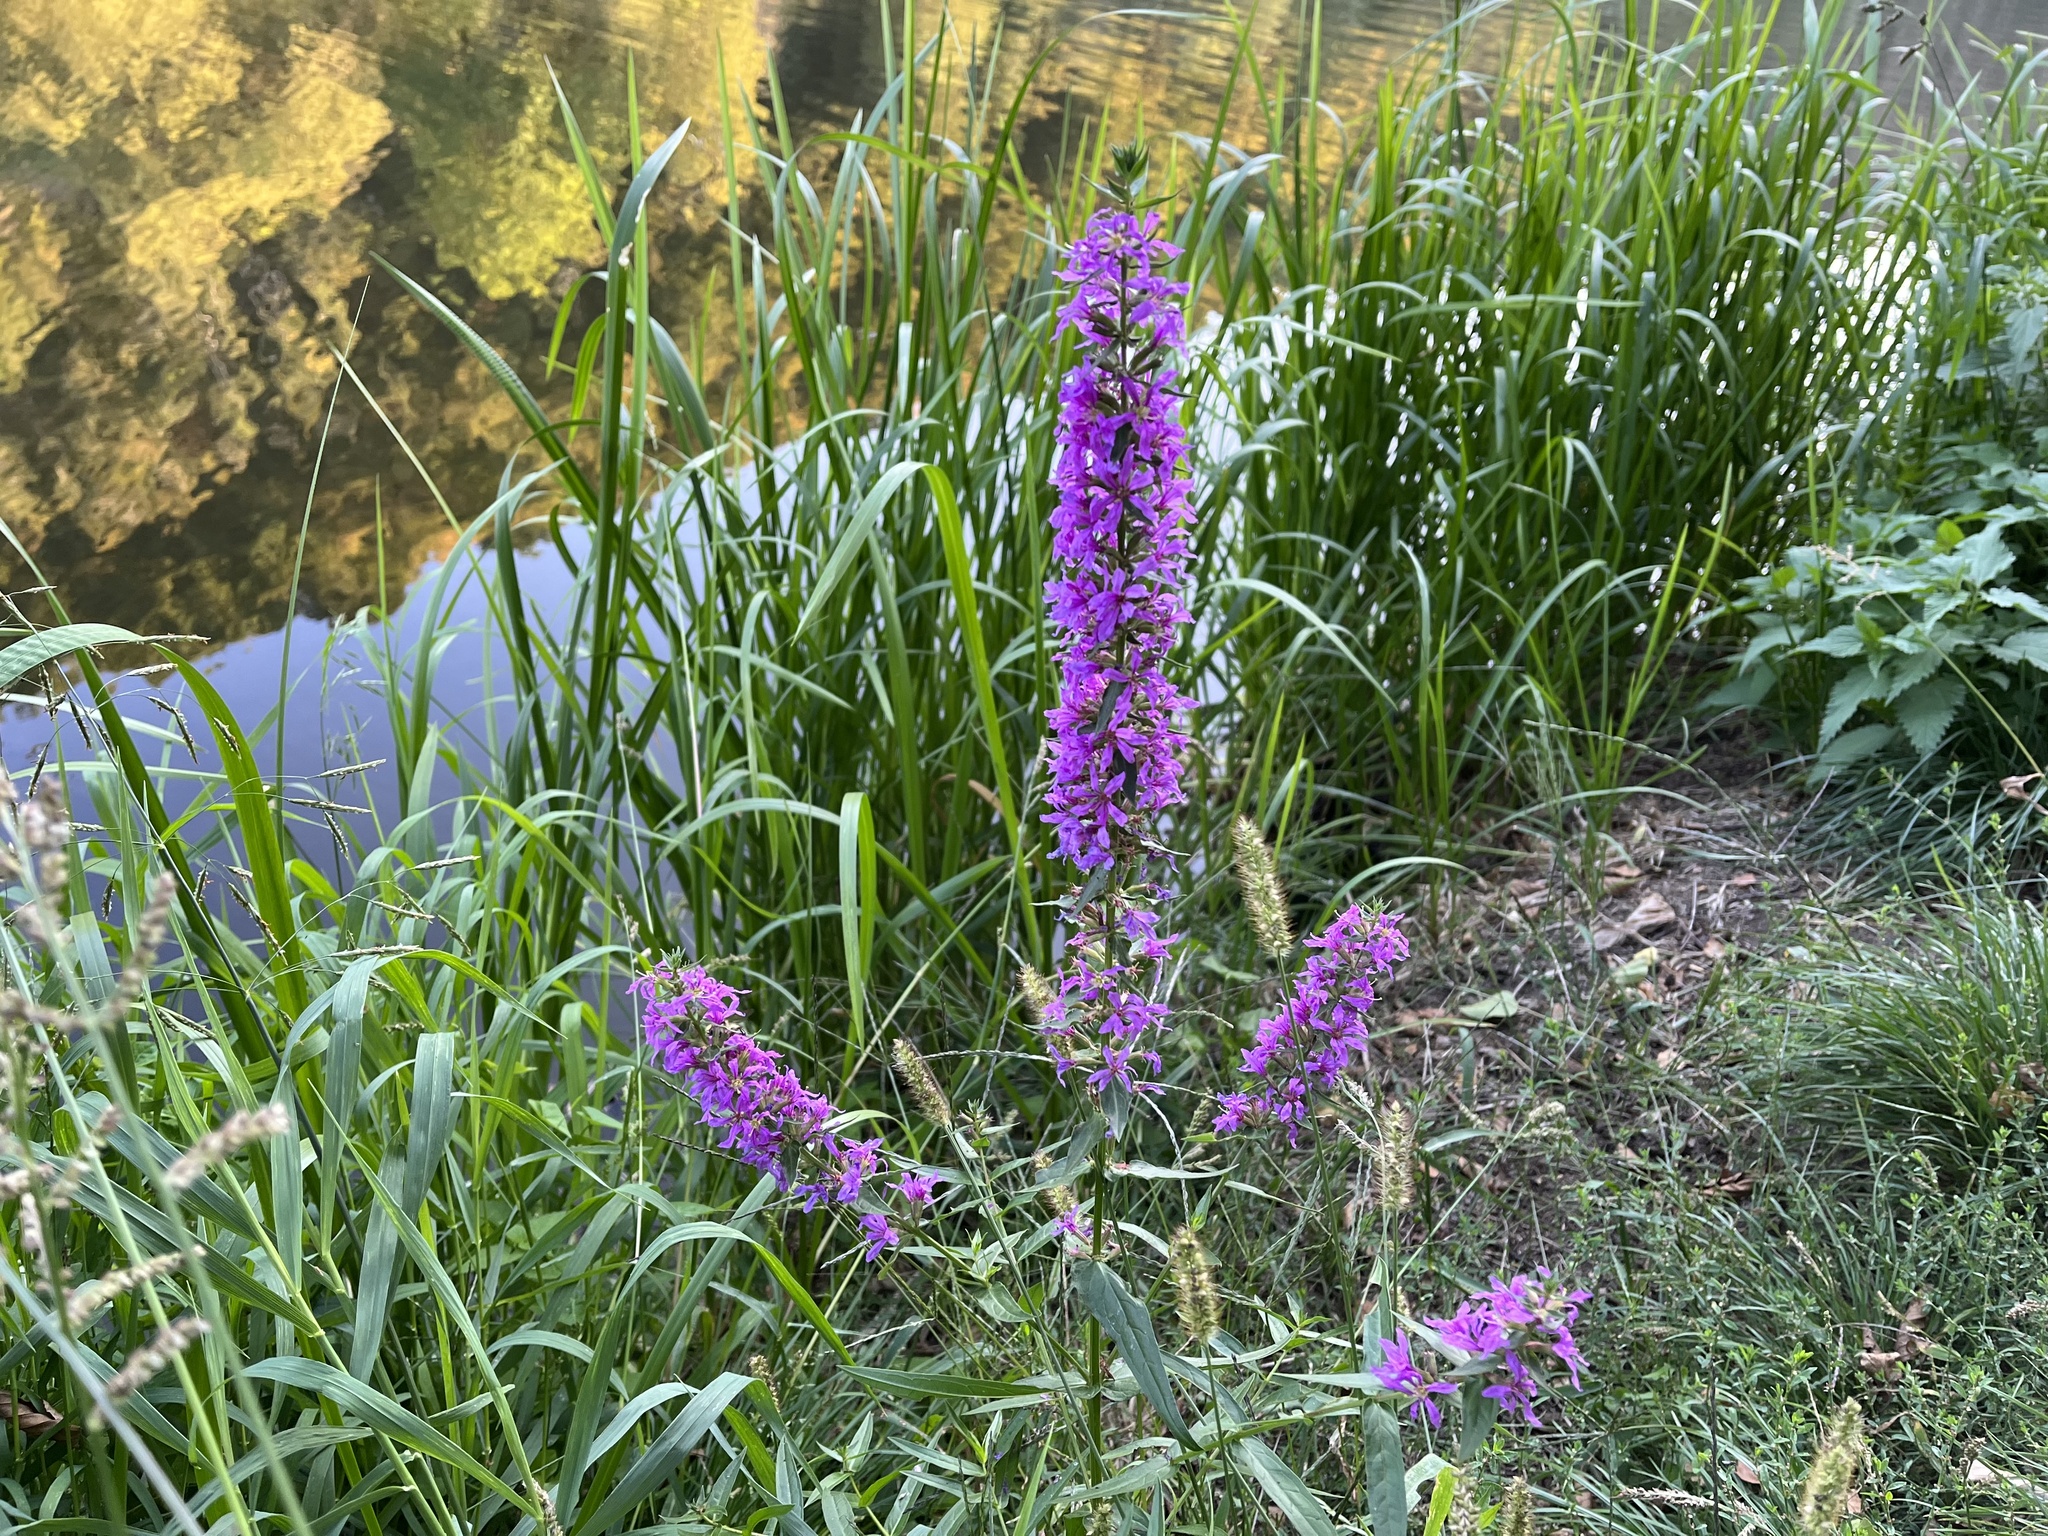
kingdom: Plantae
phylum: Tracheophyta
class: Magnoliopsida
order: Myrtales
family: Lythraceae
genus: Lythrum
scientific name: Lythrum salicaria
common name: Purple loosestrife
